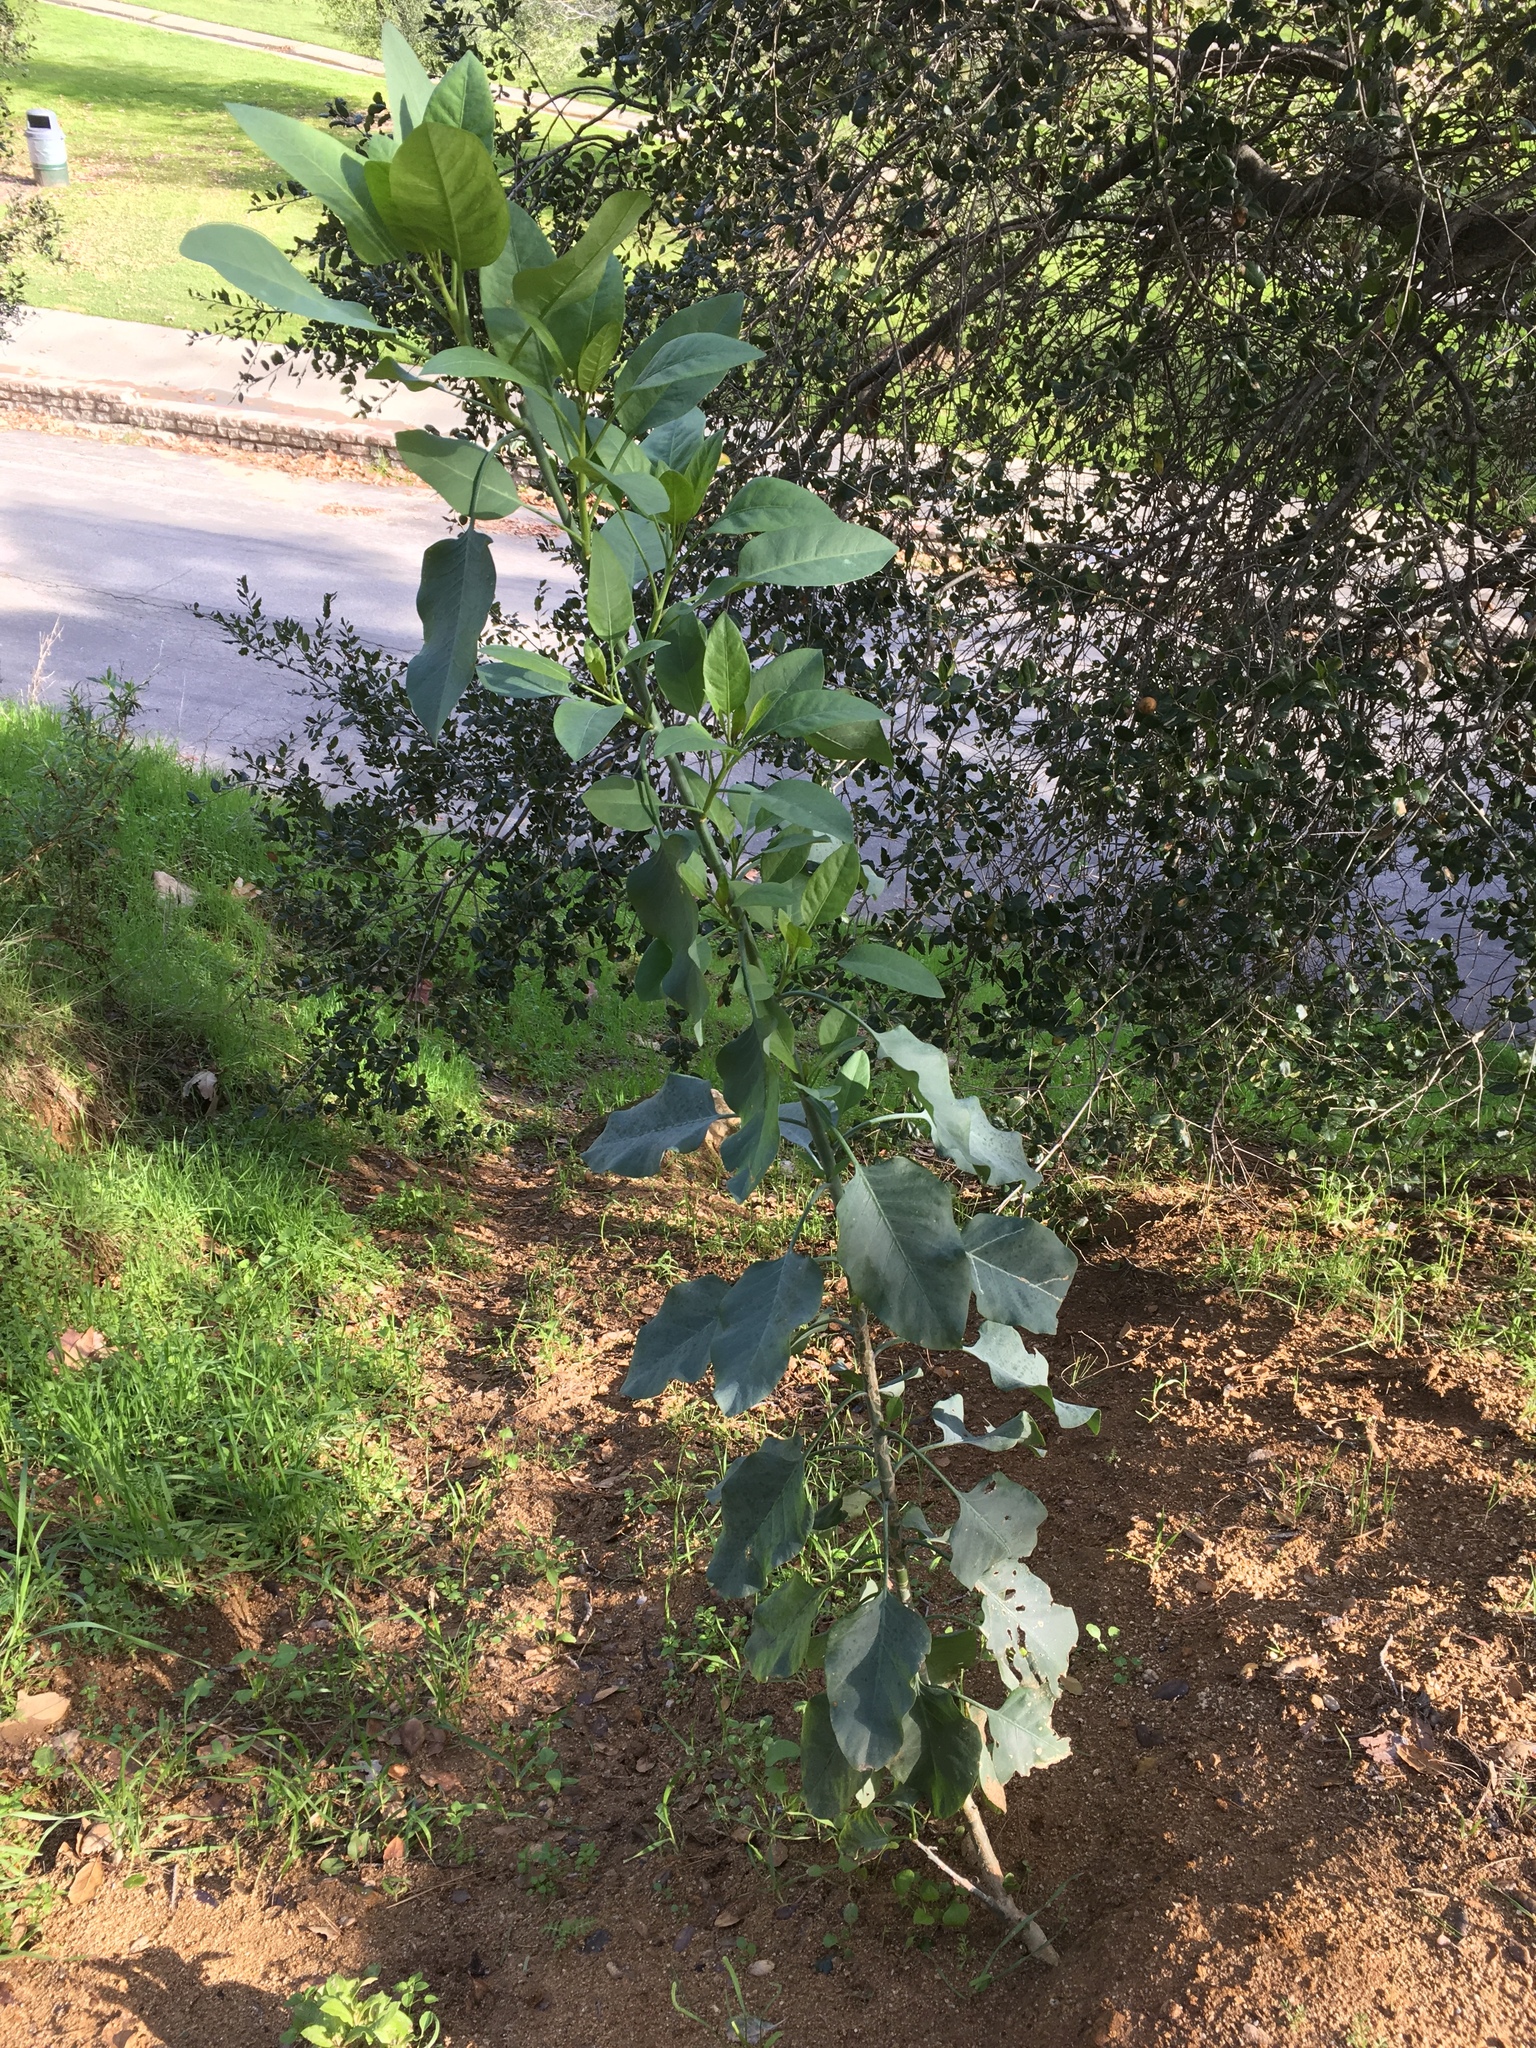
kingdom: Plantae
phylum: Tracheophyta
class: Magnoliopsida
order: Solanales
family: Solanaceae
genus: Nicotiana
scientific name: Nicotiana glauca
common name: Tree tobacco
